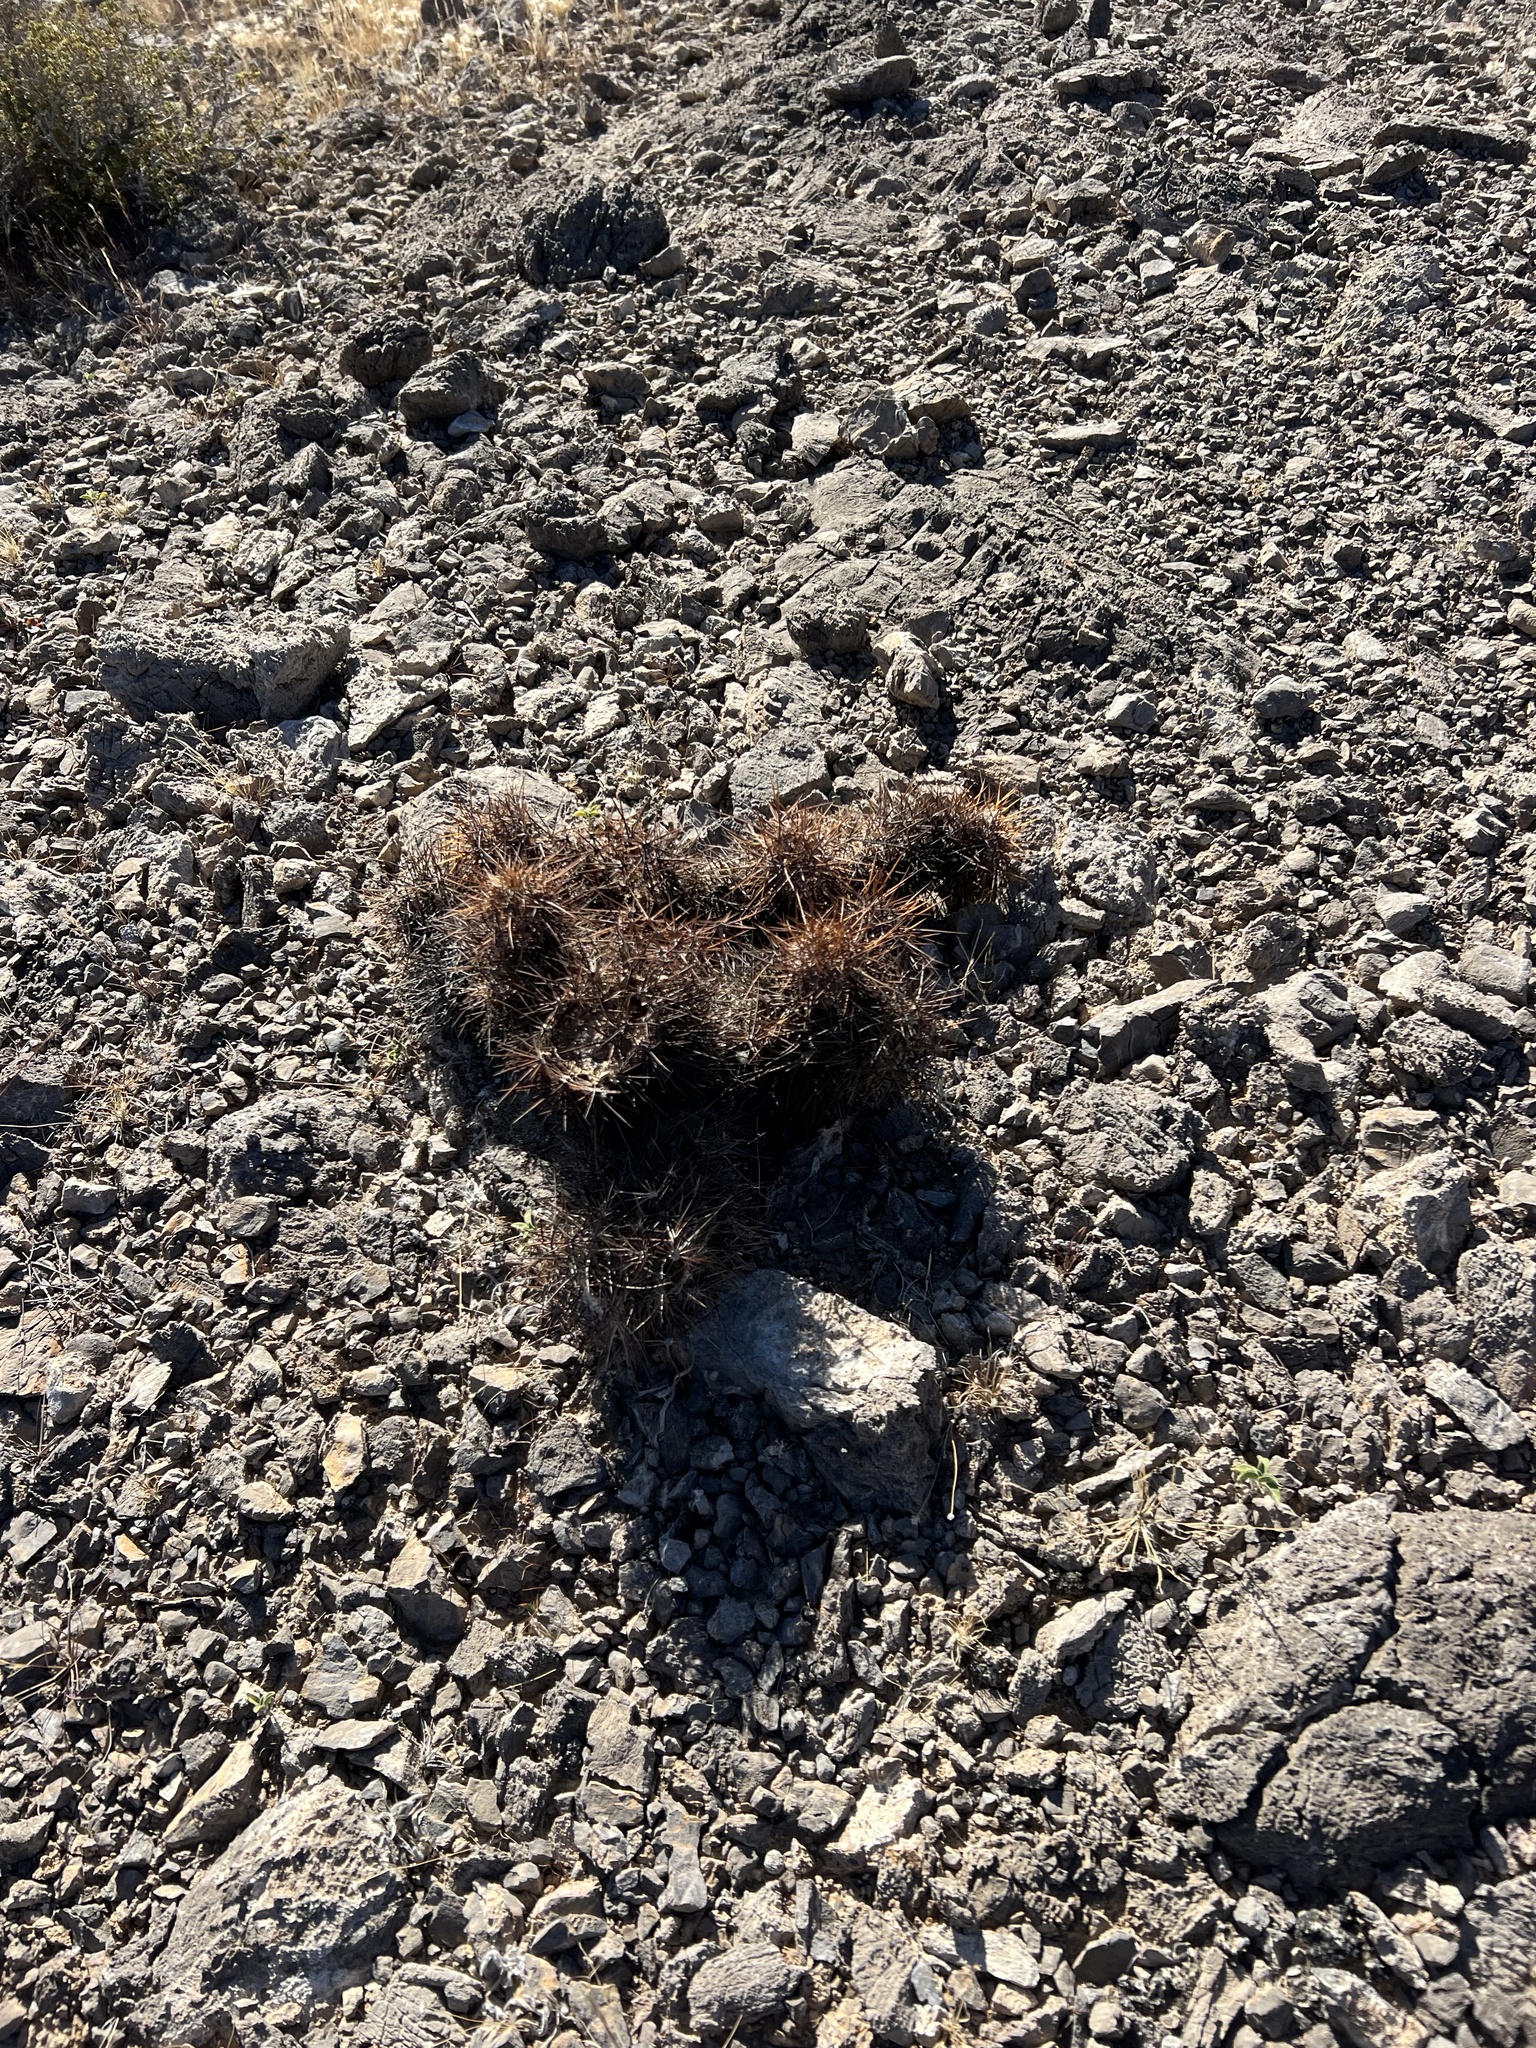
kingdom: Plantae
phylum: Tracheophyta
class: Magnoliopsida
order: Caryophyllales
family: Cactaceae
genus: Echinocereus
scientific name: Echinocereus engelmannii
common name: Engelmann's hedgehog cactus
